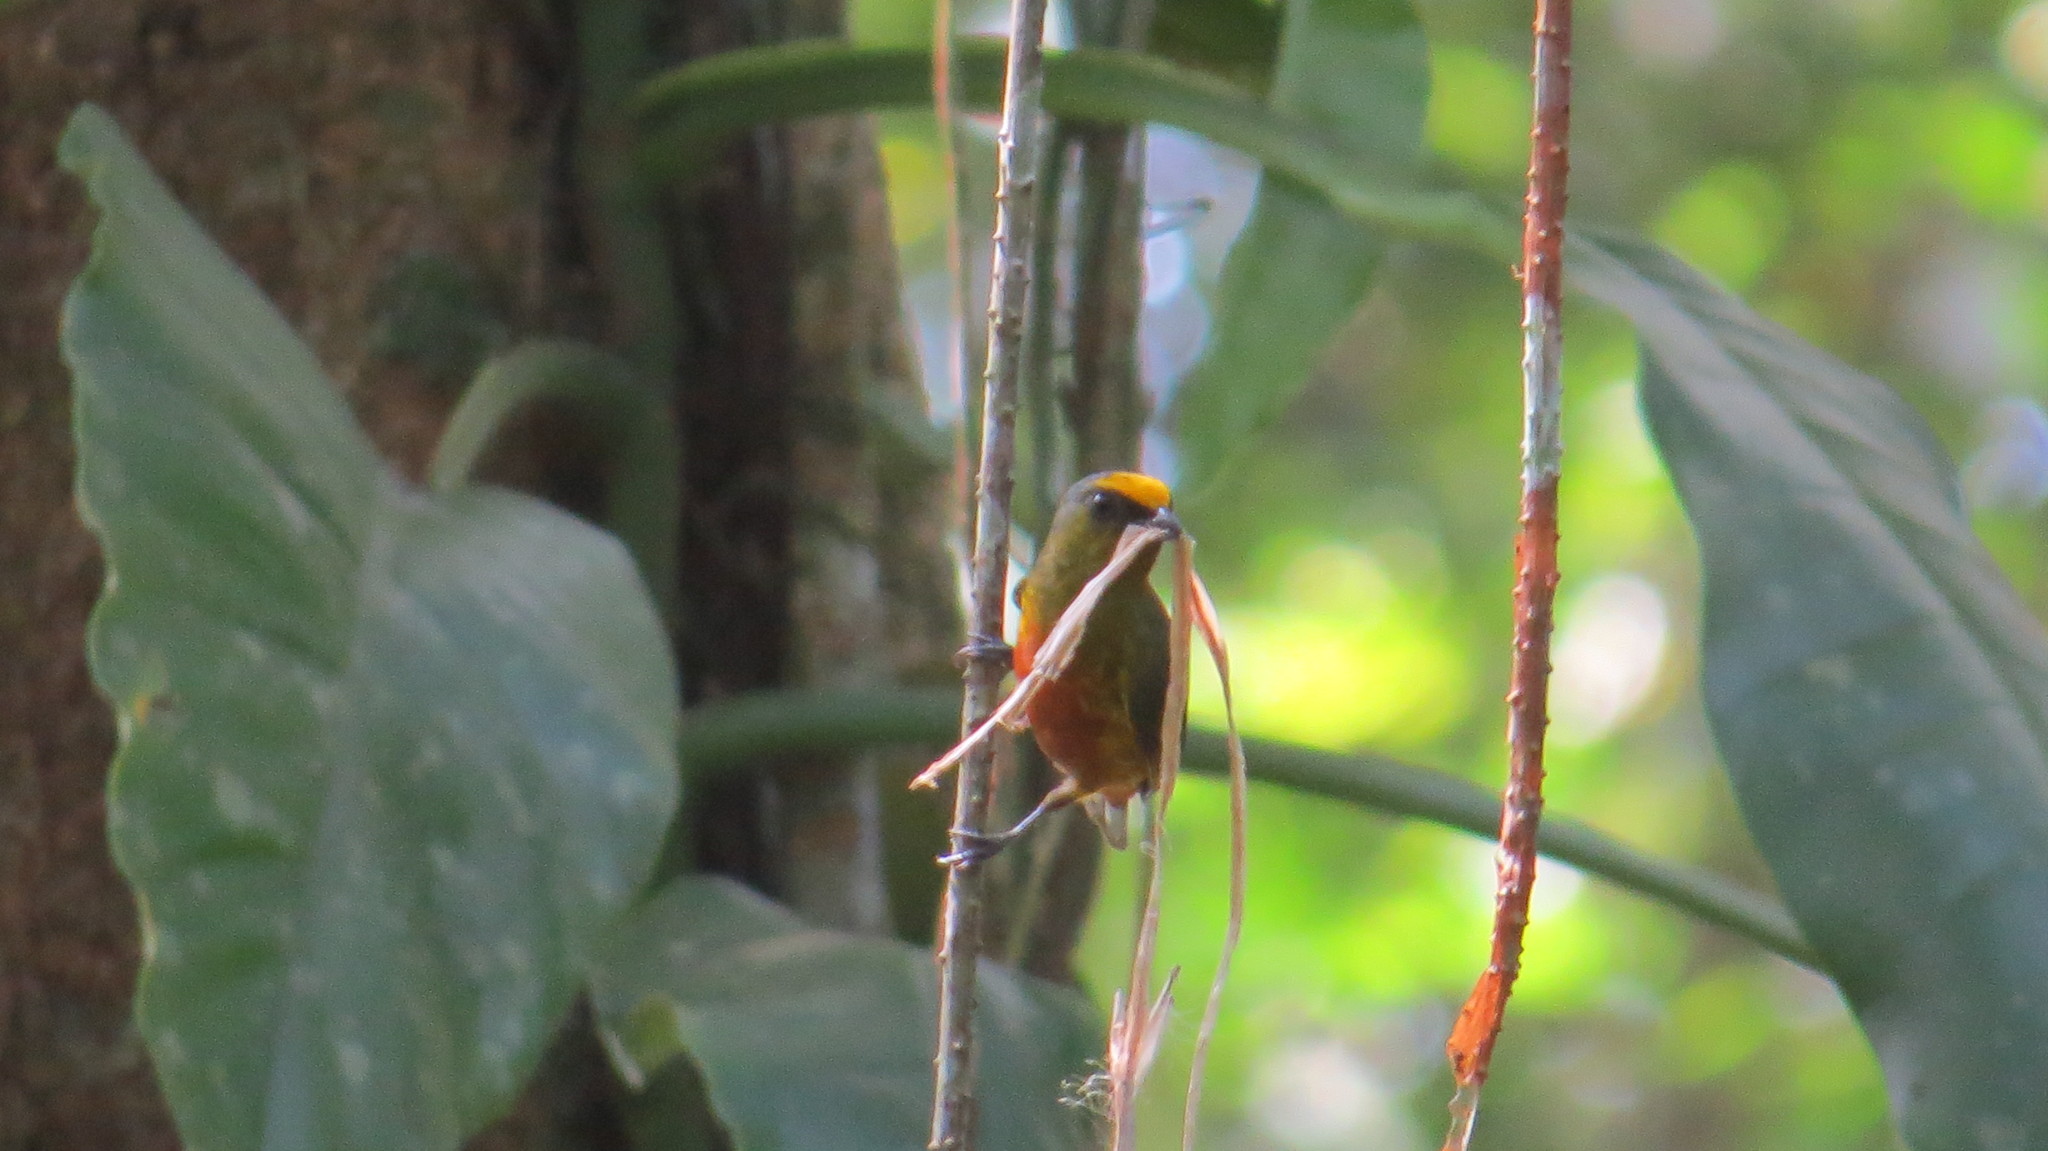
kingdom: Animalia
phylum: Chordata
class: Aves
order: Passeriformes
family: Fringillidae
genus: Euphonia
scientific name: Euphonia gouldi
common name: Olive-backed euphonia
